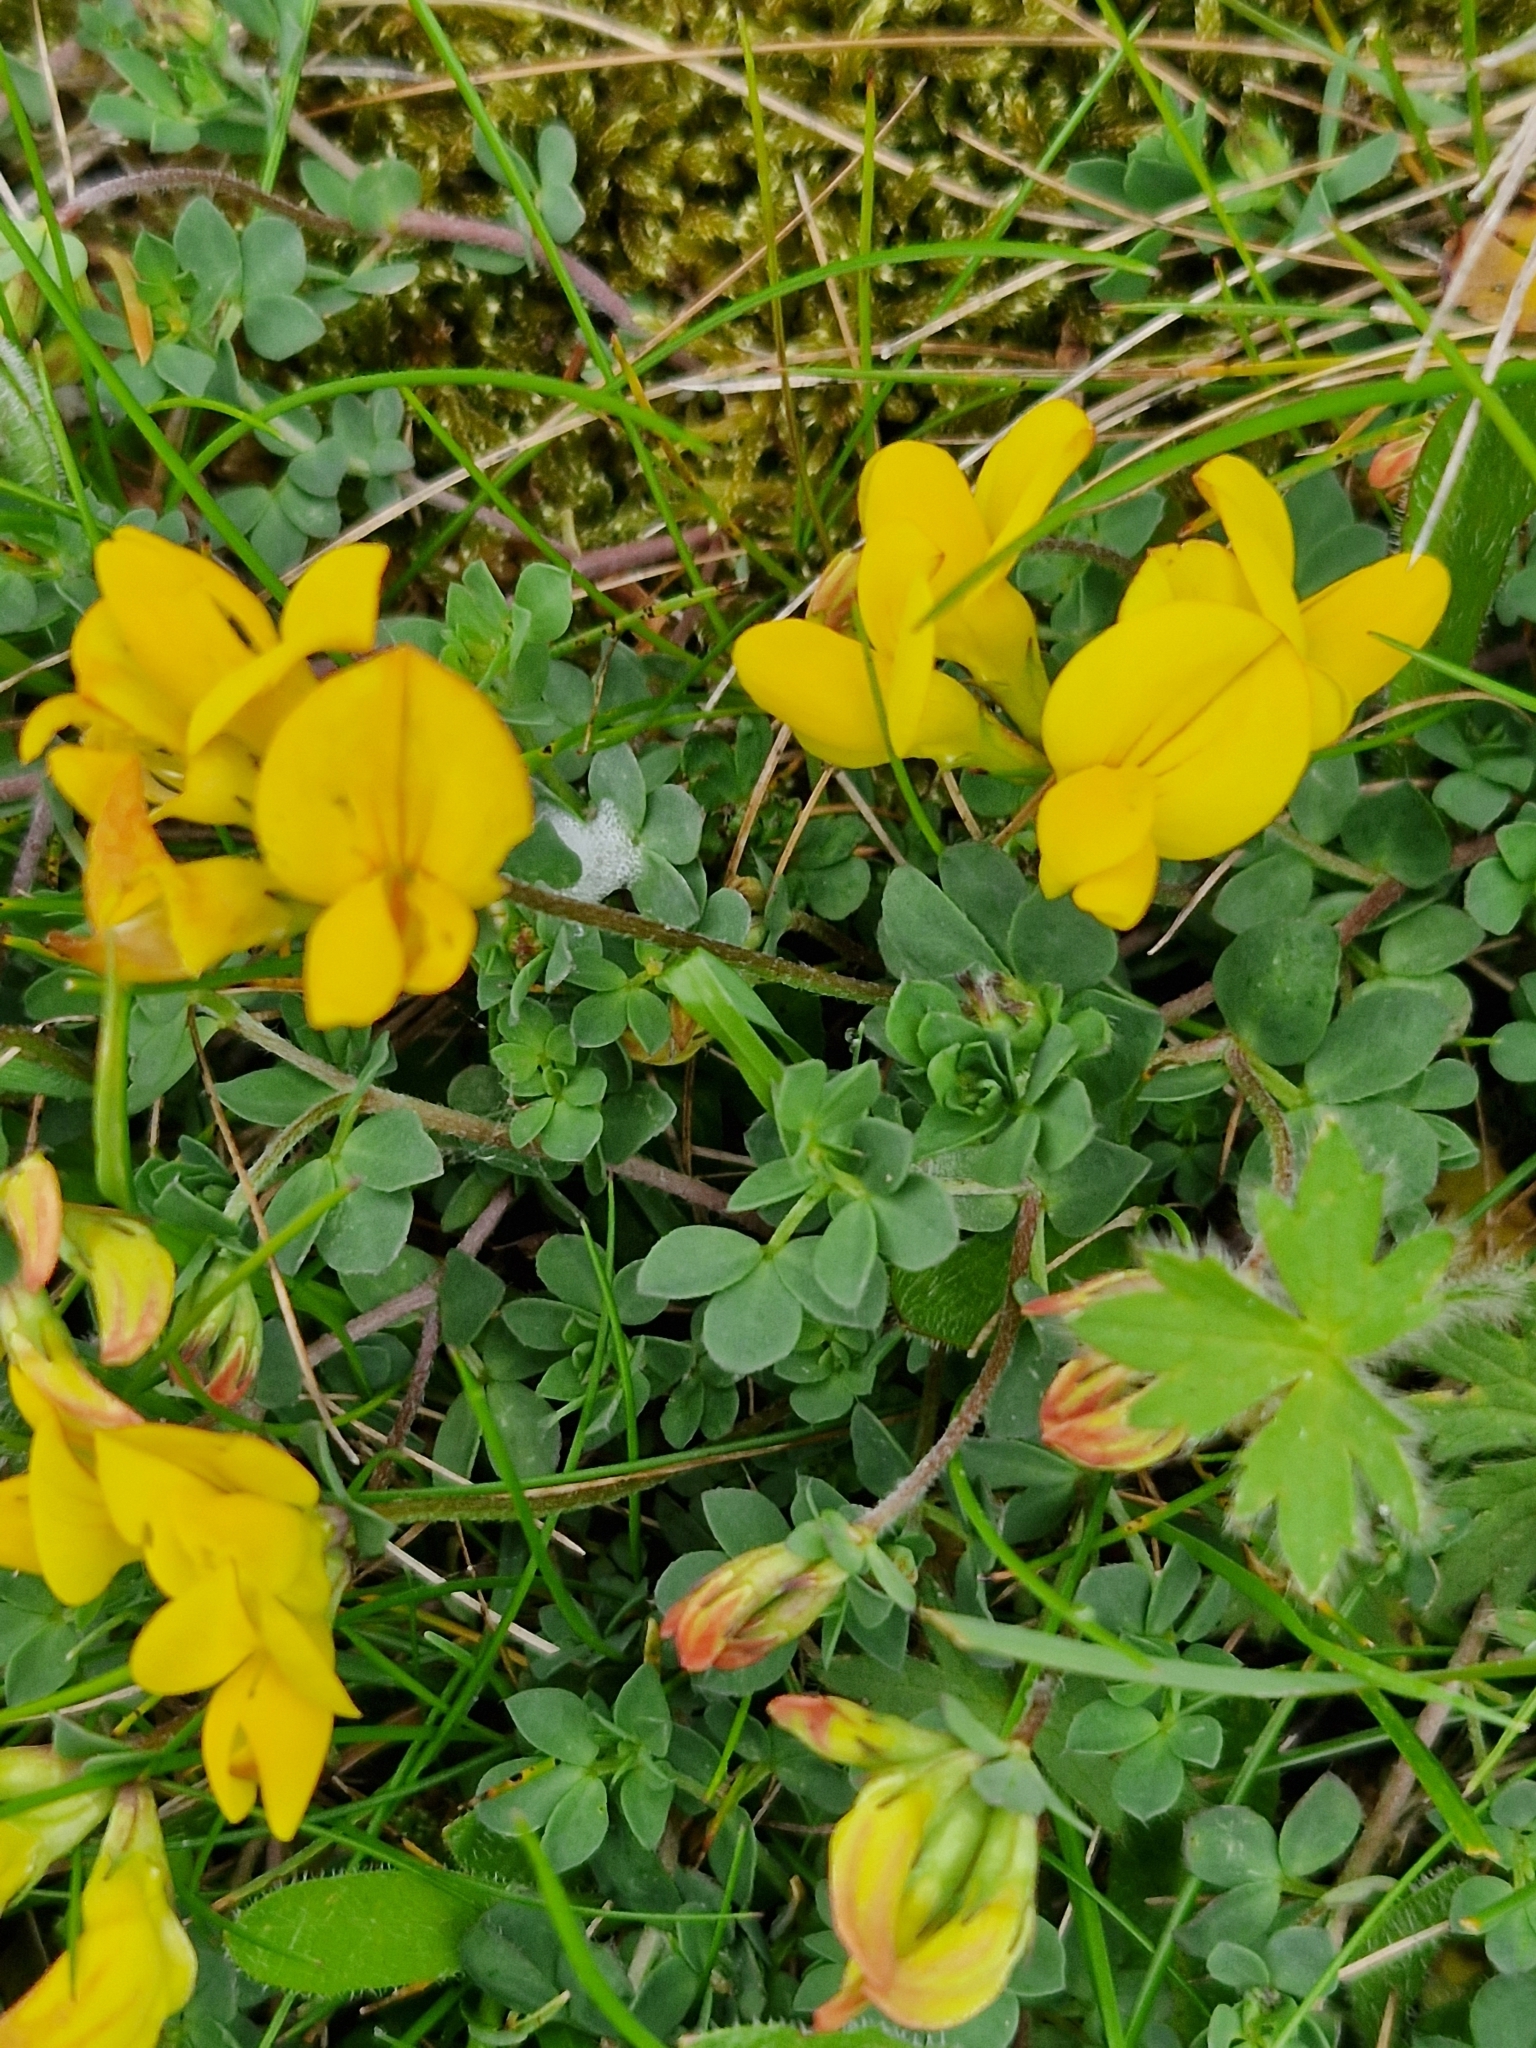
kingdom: Plantae
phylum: Tracheophyta
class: Magnoliopsida
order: Fabales
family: Fabaceae
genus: Lotus
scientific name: Lotus corniculatus
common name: Common bird's-foot-trefoil
